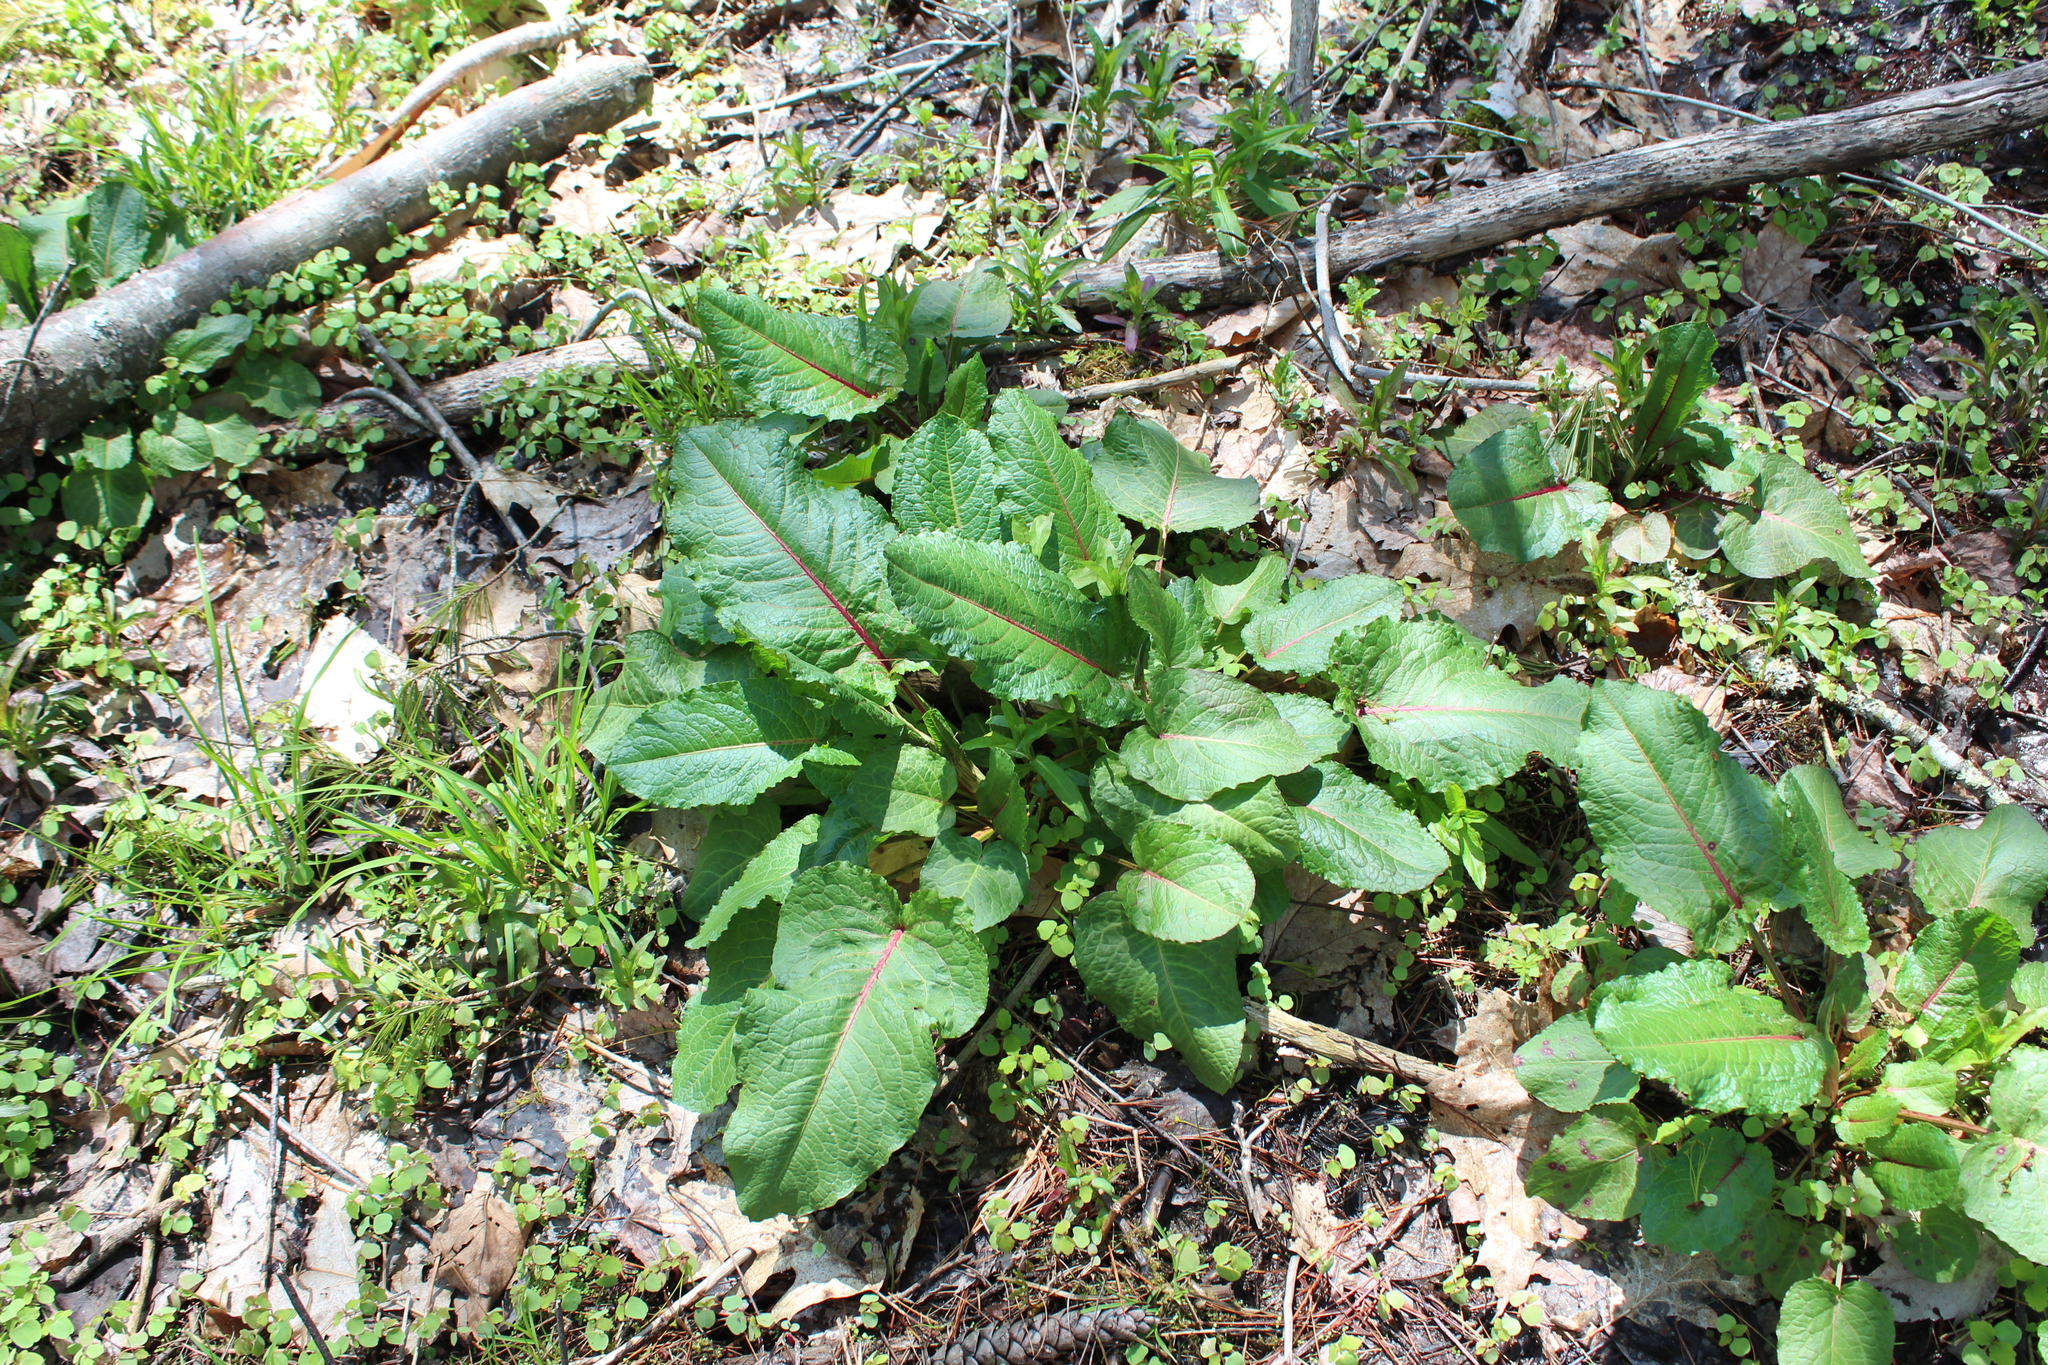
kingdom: Plantae
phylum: Tracheophyta
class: Magnoliopsida
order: Caryophyllales
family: Polygonaceae
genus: Rumex
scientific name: Rumex obtusifolius
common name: Bitter dock
